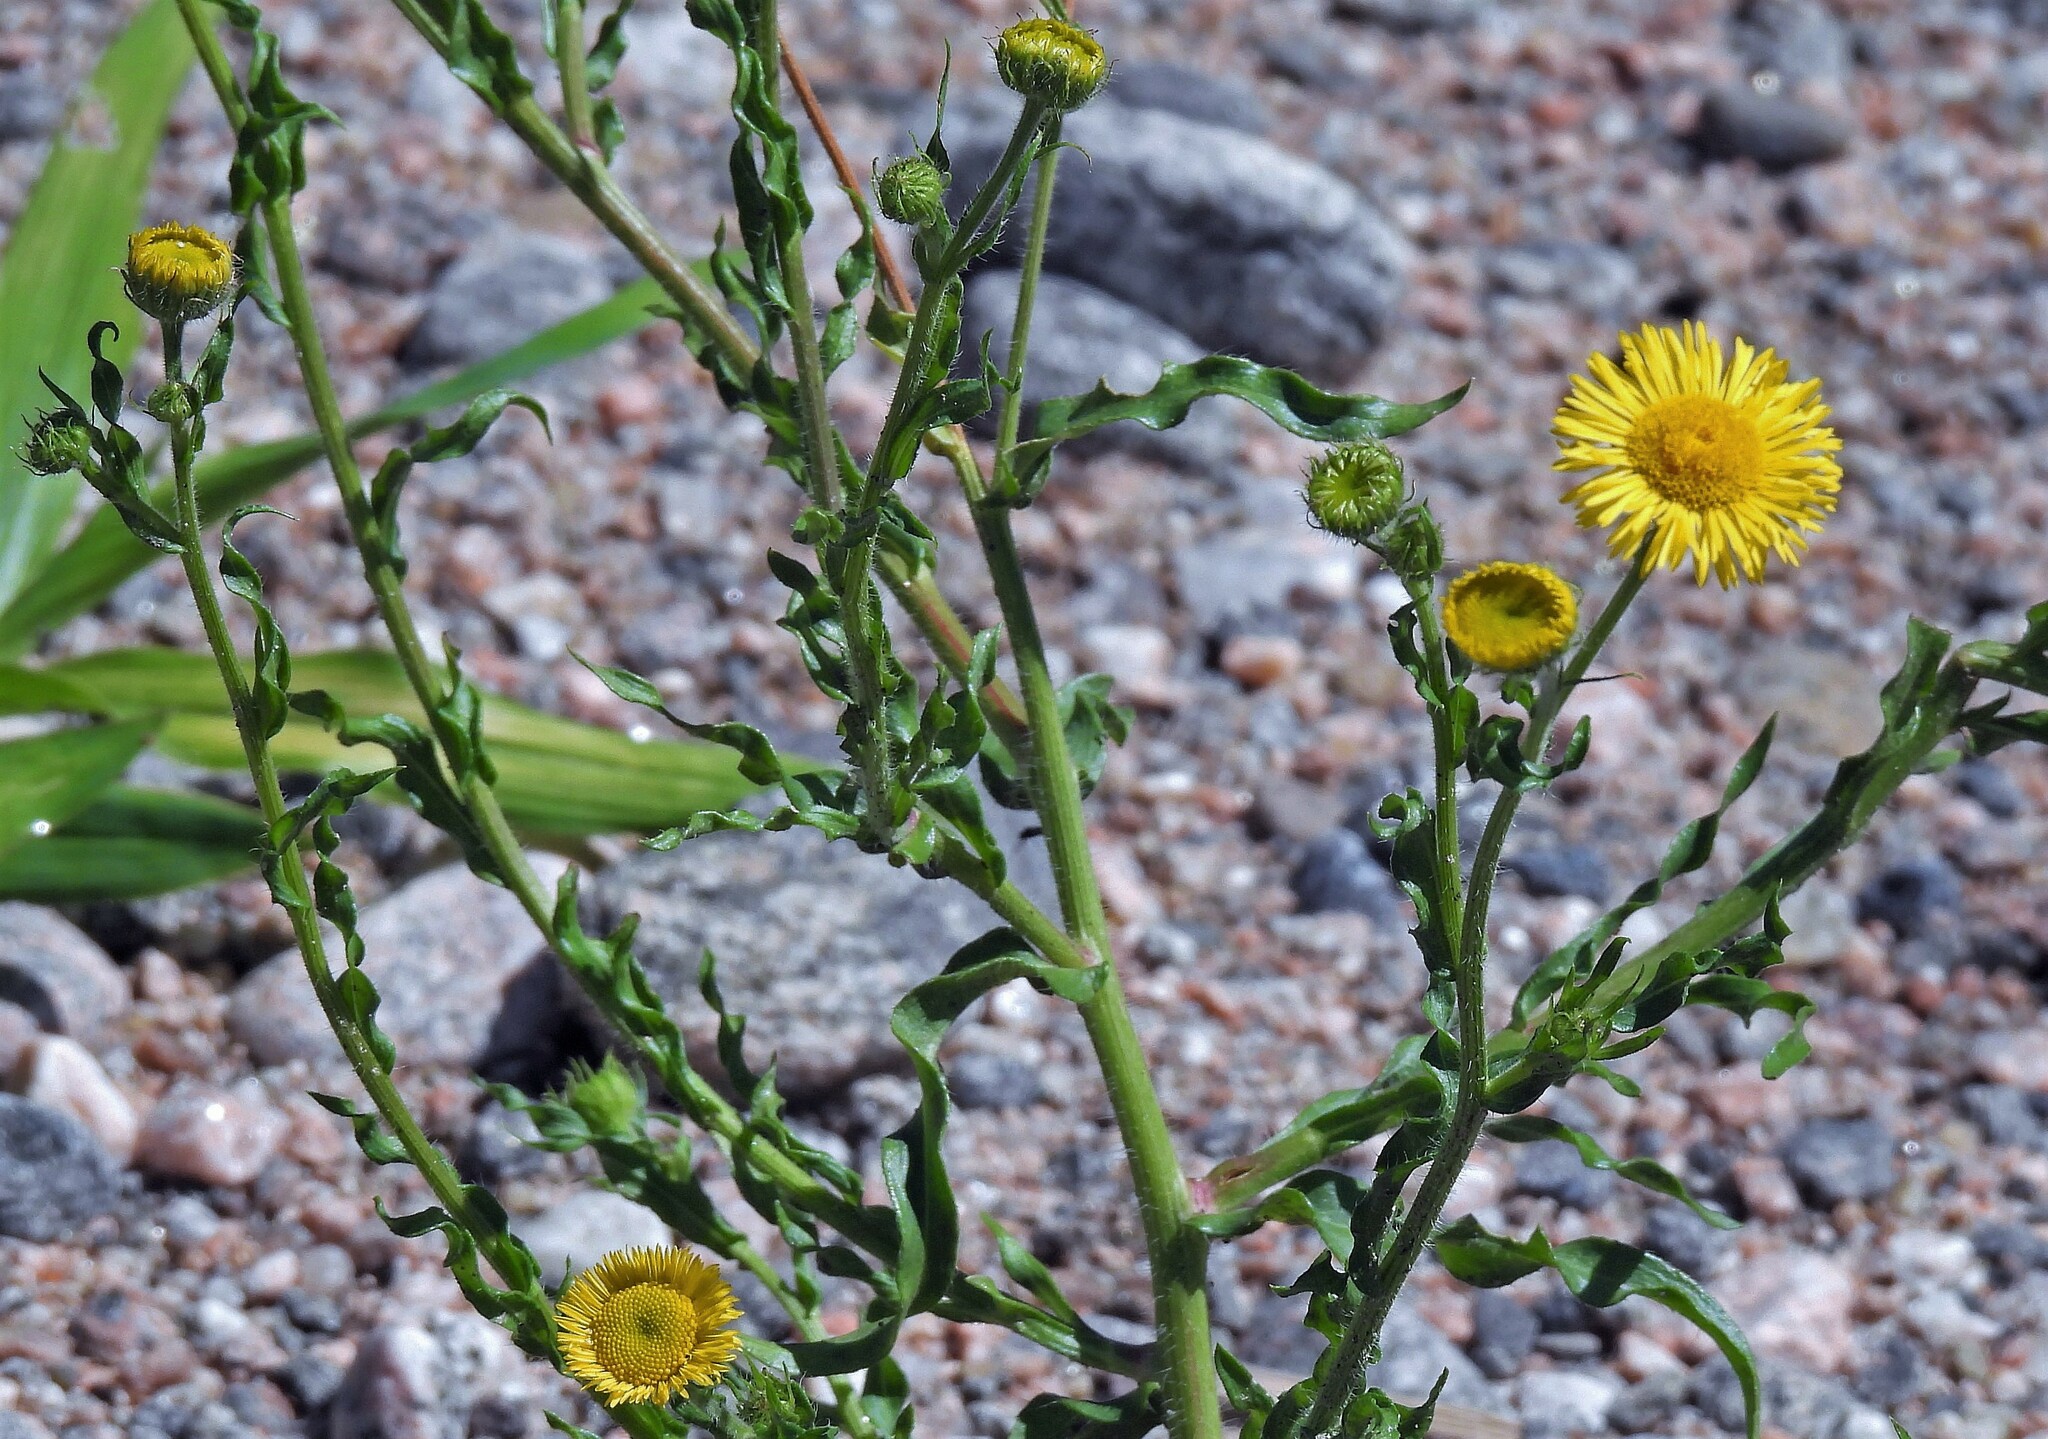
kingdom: Plantae
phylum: Tracheophyta
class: Magnoliopsida
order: Asterales
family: Asteraceae
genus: Hysterionica
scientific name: Hysterionica jasionoides
